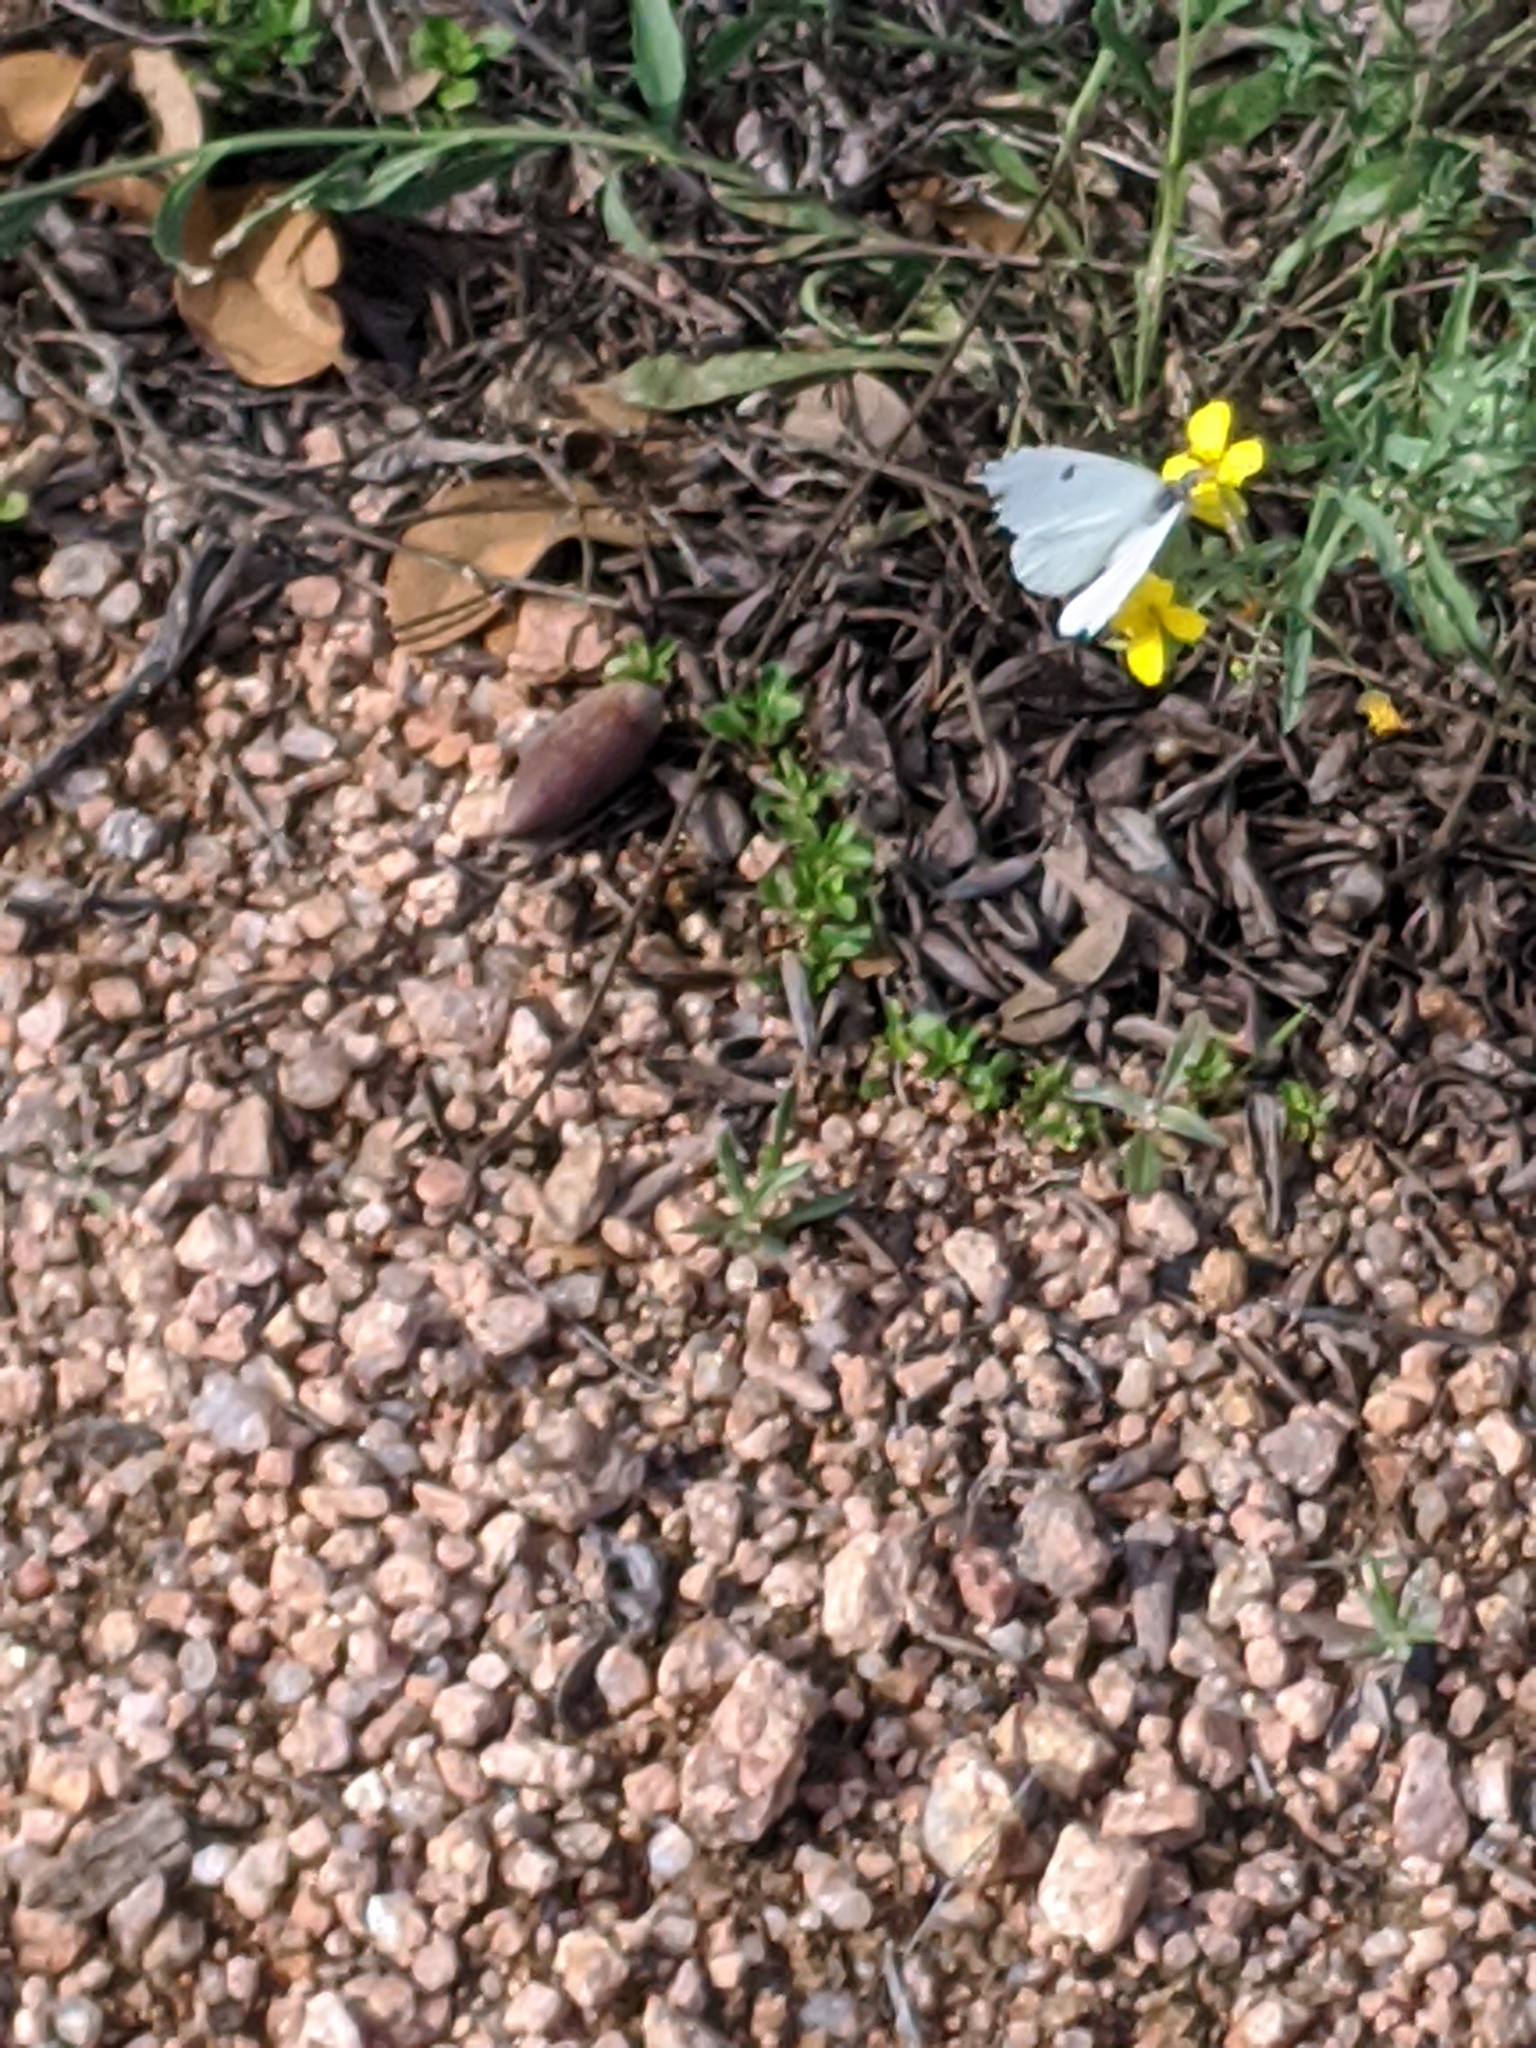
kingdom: Animalia
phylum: Arthropoda
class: Insecta
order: Lepidoptera
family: Pieridae
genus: Anthocharis
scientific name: Anthocharis midea
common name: Falcate orangetip
